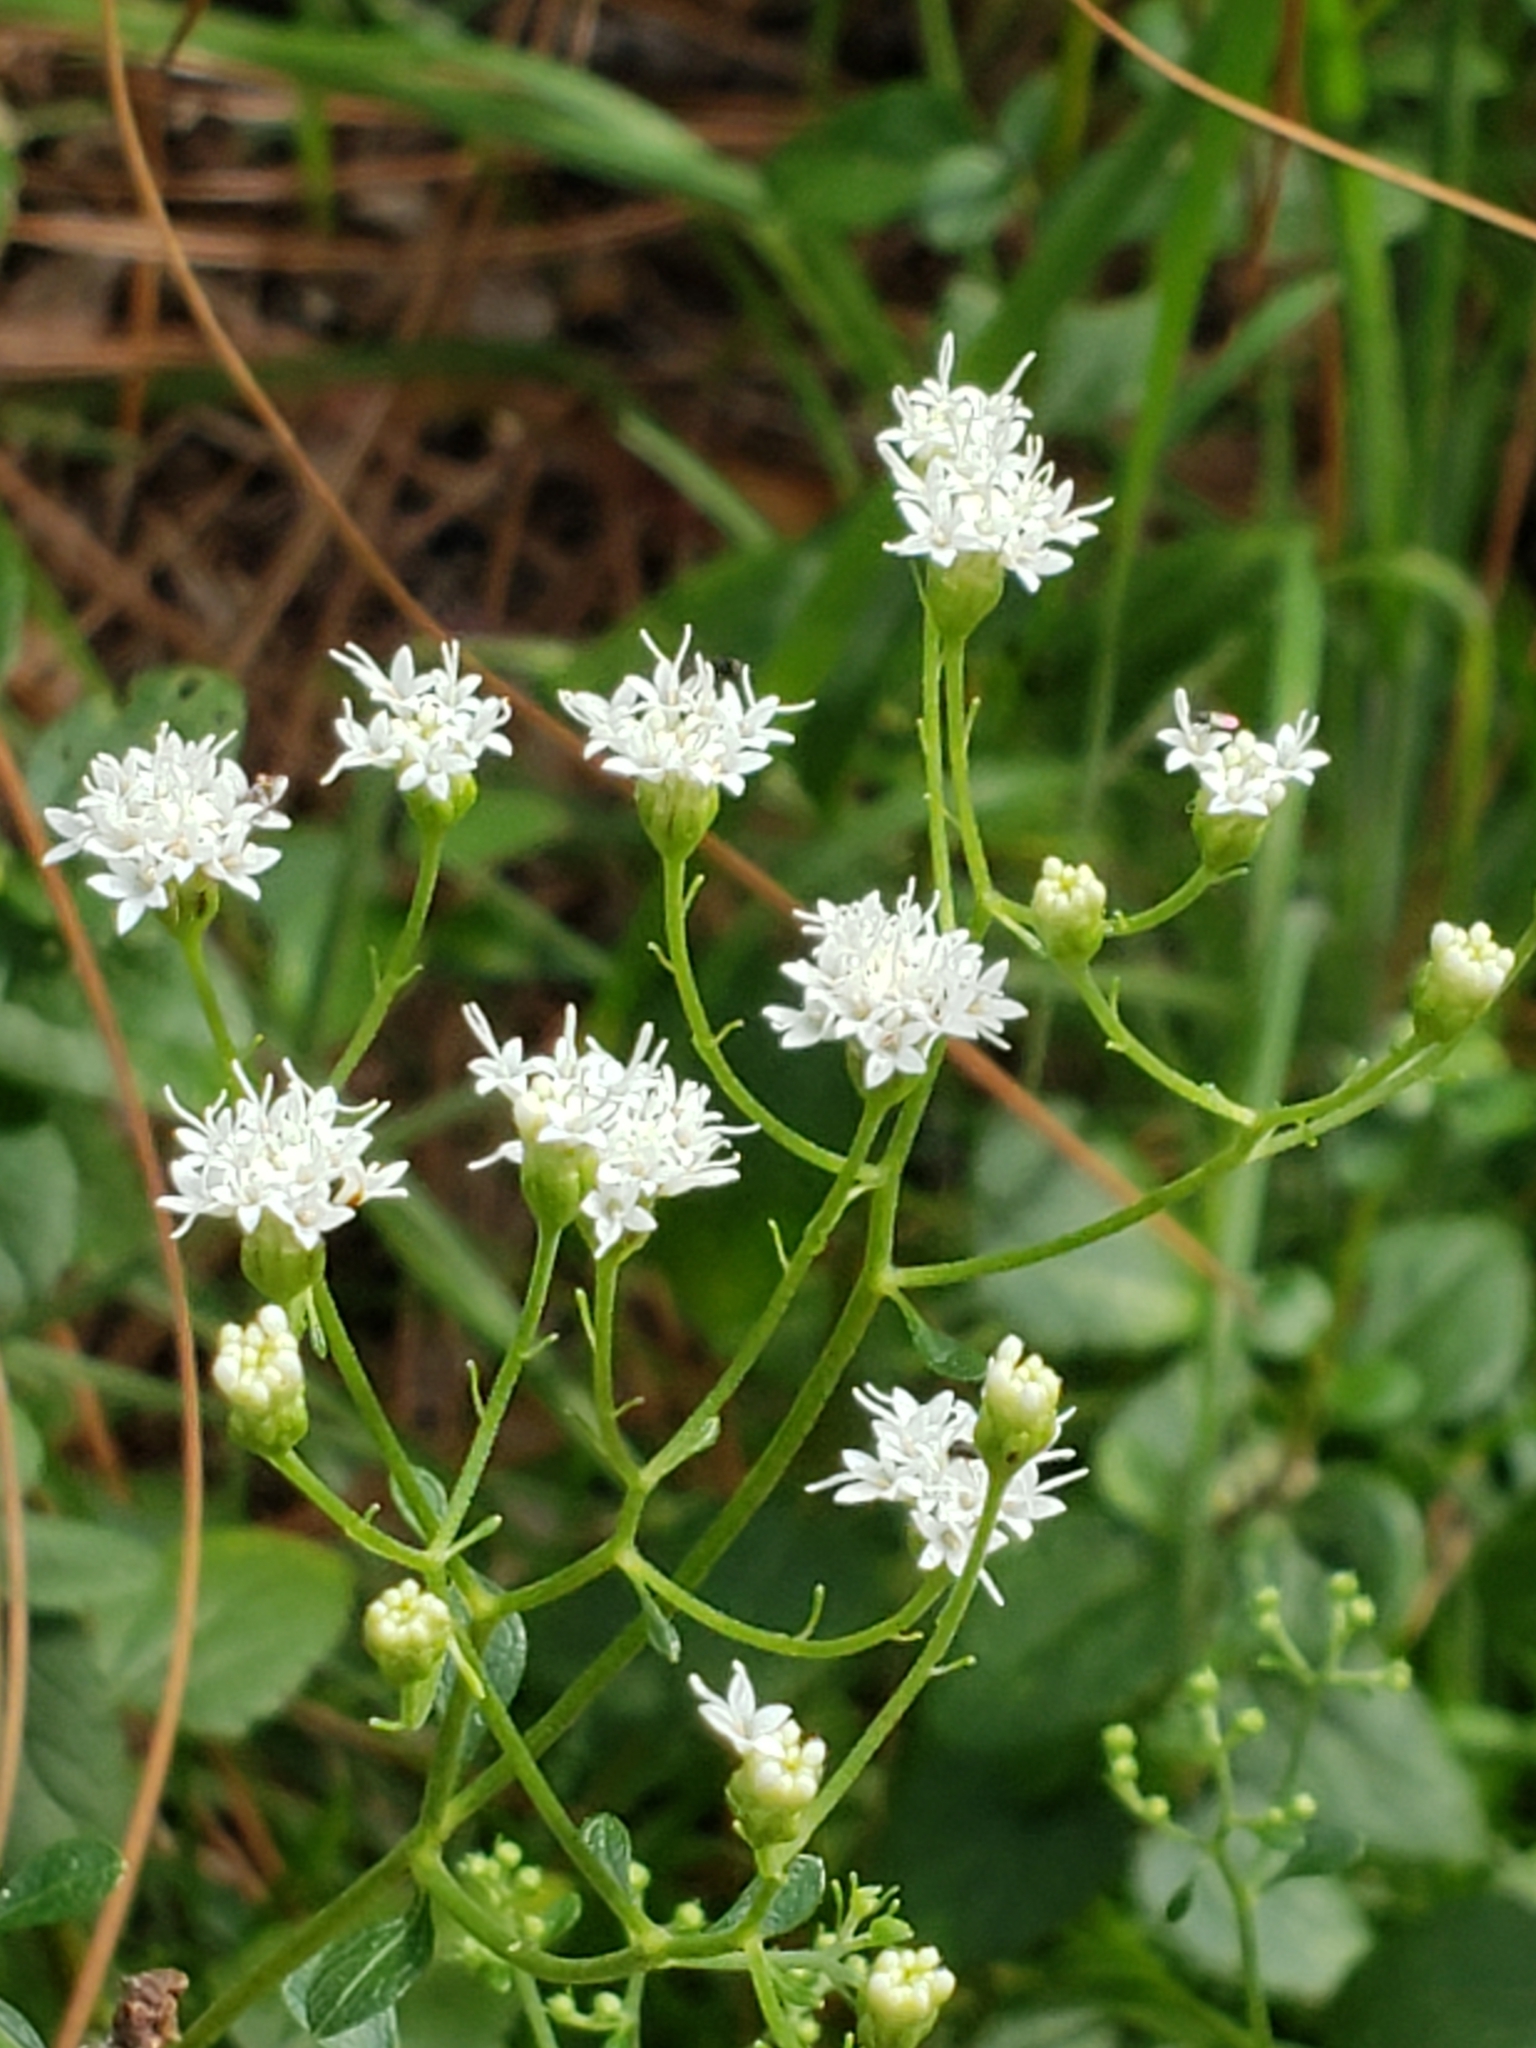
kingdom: Plantae
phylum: Tracheophyta
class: Magnoliopsida
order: Asterales
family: Asteraceae
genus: Ageratina
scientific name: Ageratina jucunda
